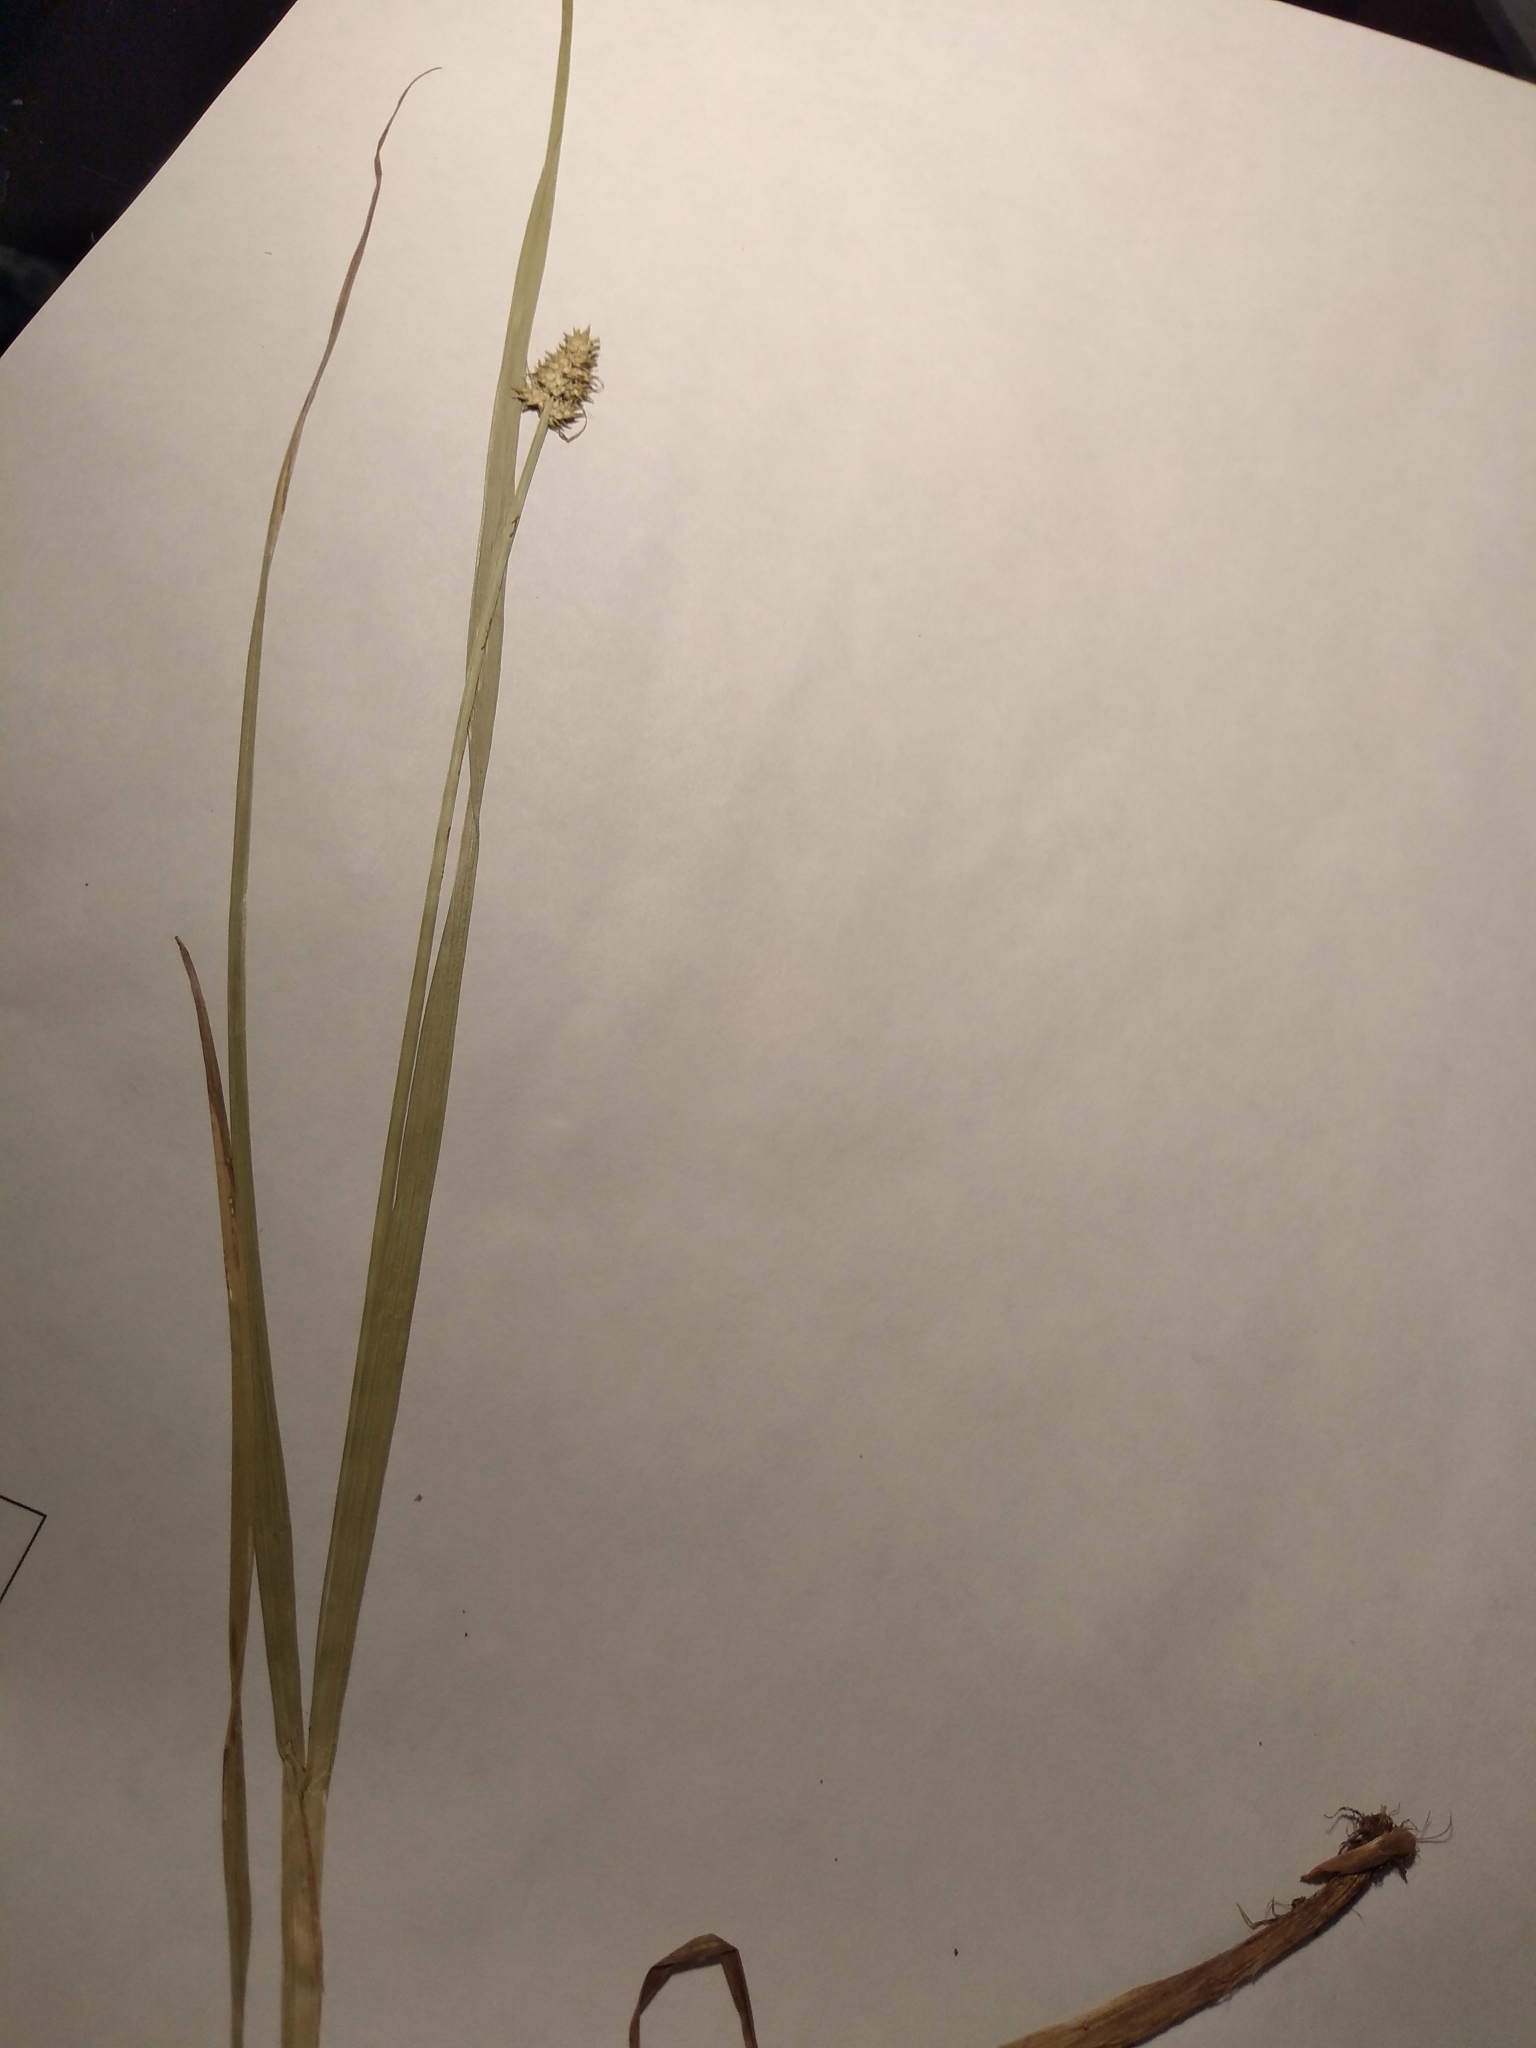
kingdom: Plantae
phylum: Tracheophyta
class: Liliopsida
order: Poales
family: Cyperaceae
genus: Carex
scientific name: Carex cephalophora
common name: Oval-headed sedge
